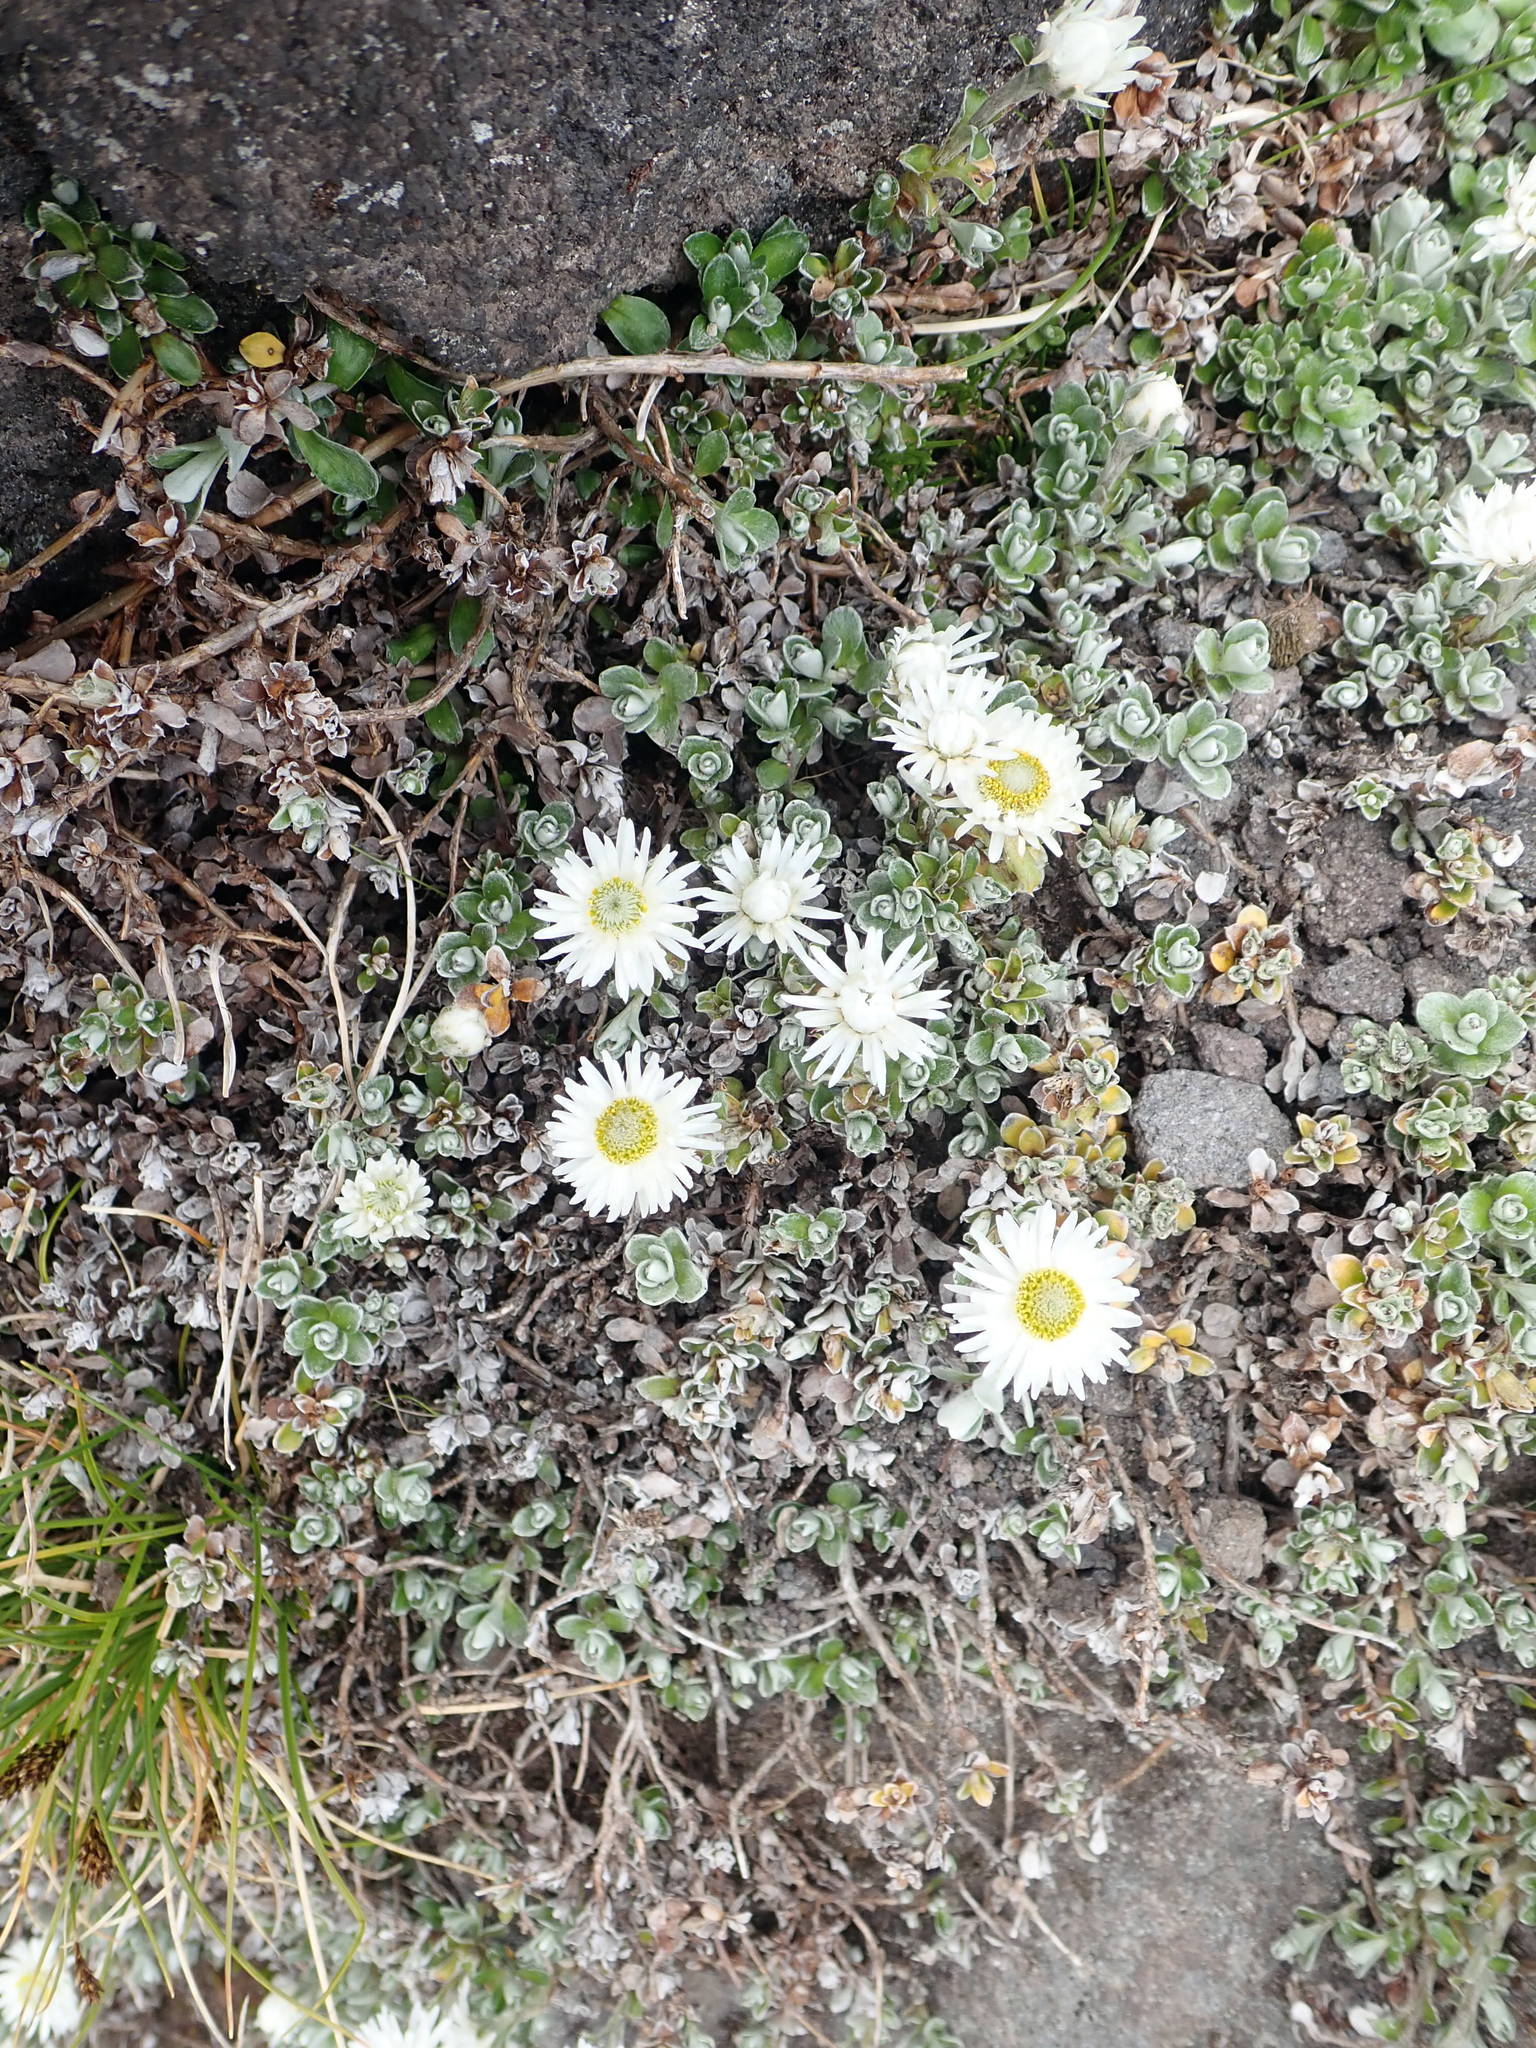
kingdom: Plantae
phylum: Tracheophyta
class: Magnoliopsida
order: Asterales
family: Asteraceae
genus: Anaphalioides
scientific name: Anaphalioides alpina
